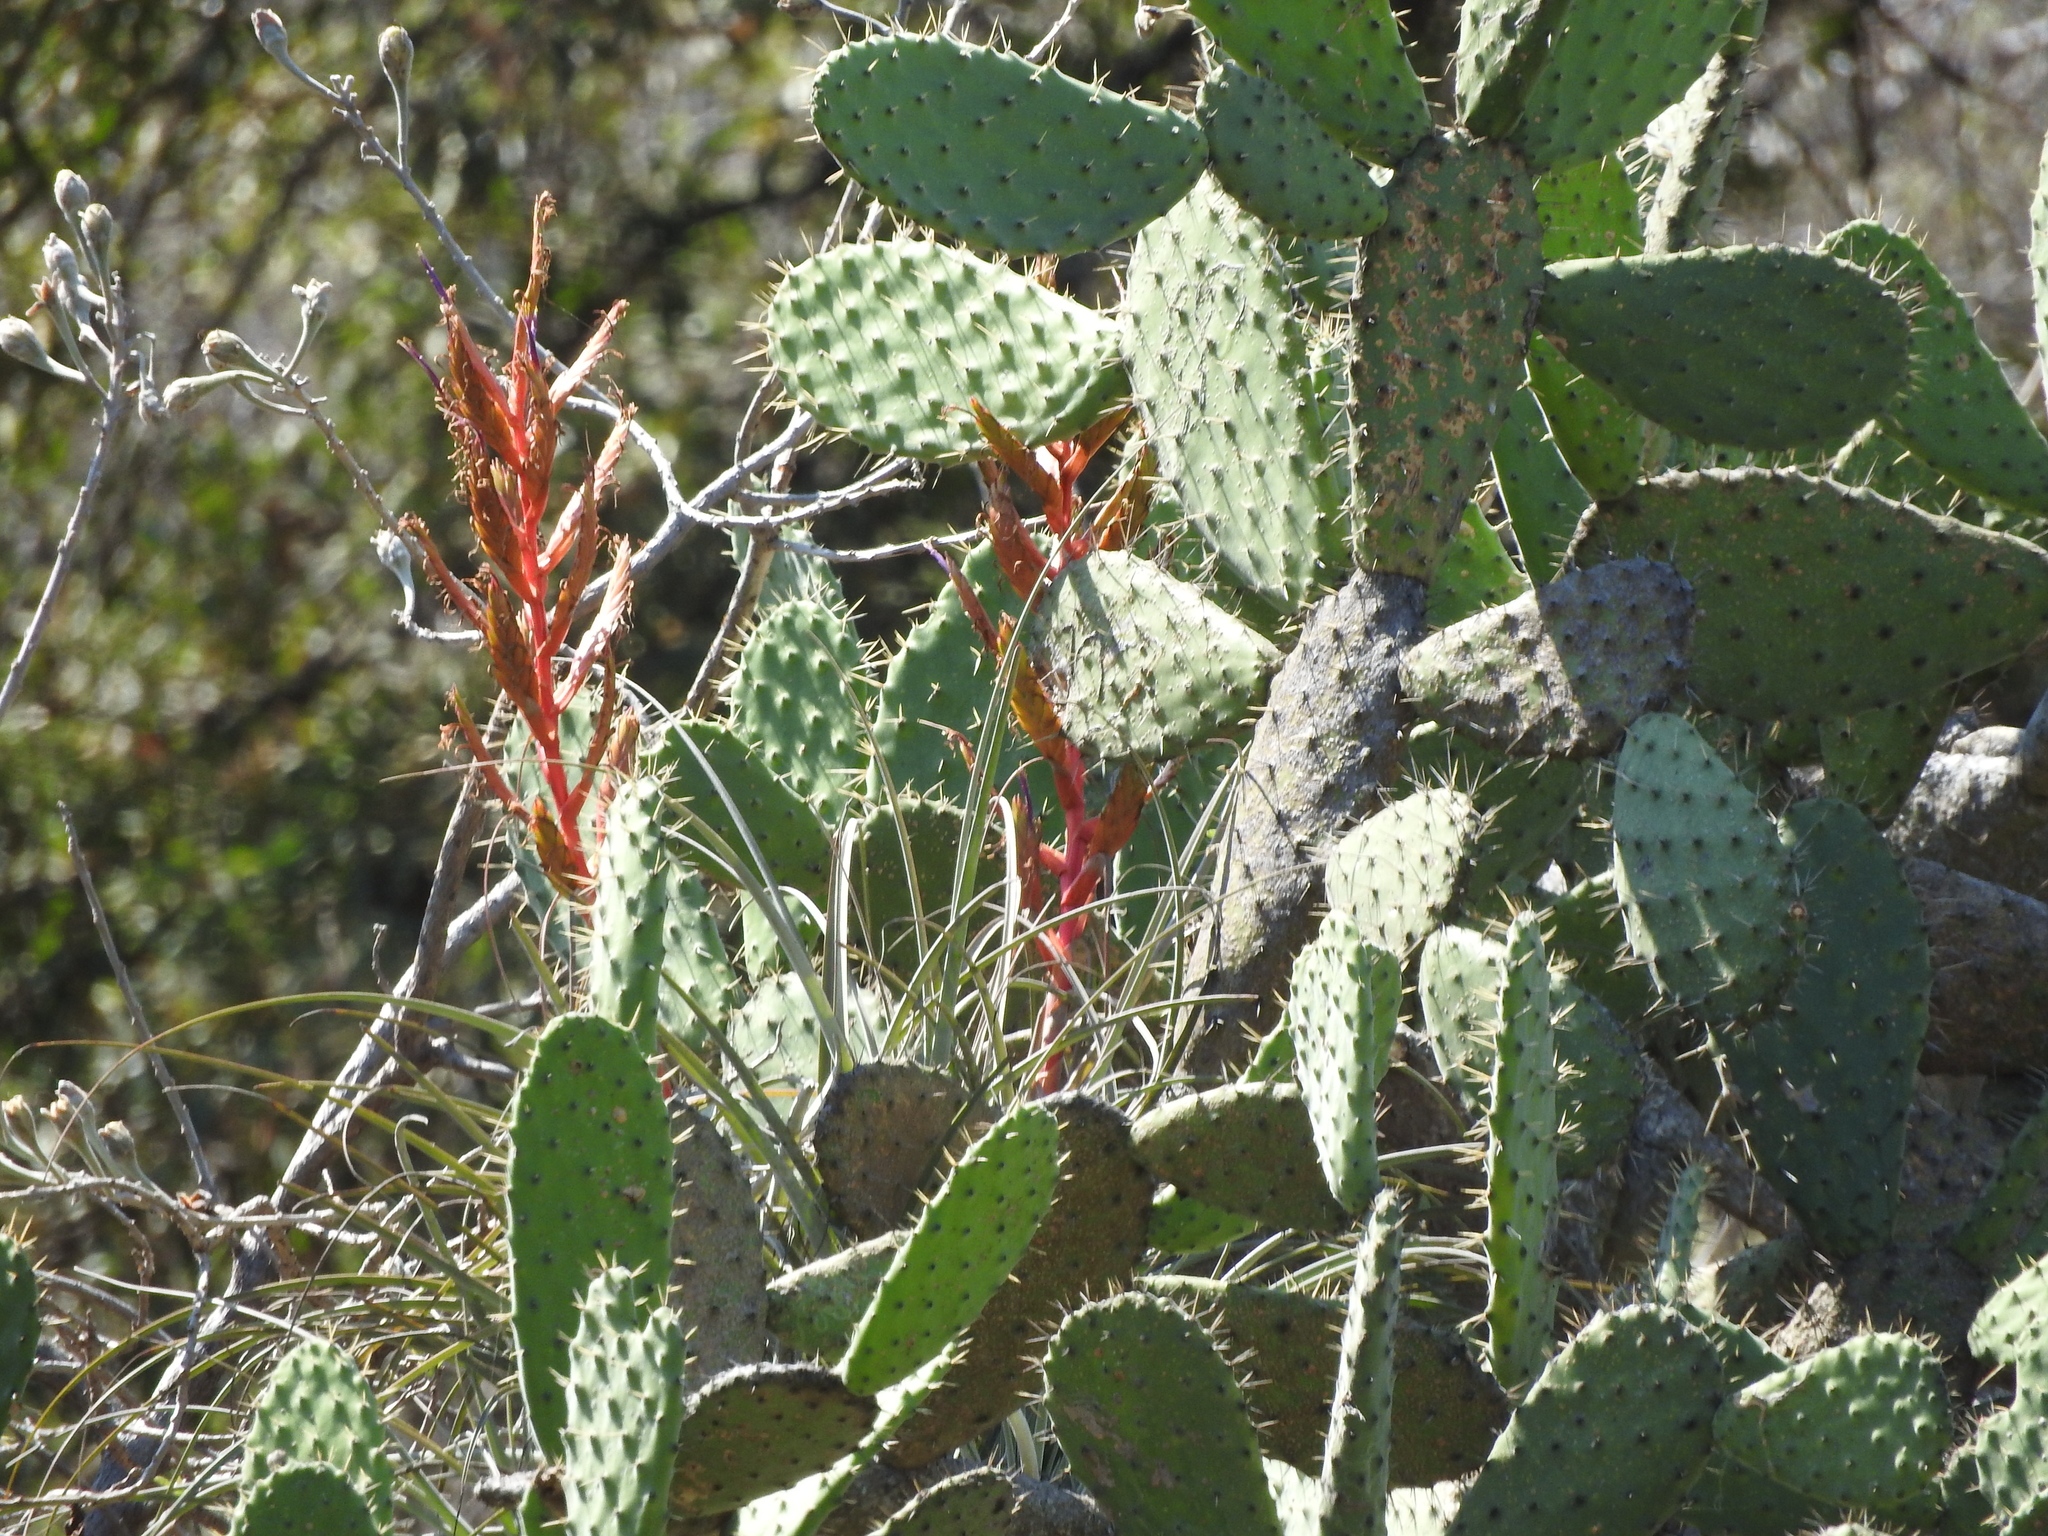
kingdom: Plantae
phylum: Tracheophyta
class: Magnoliopsida
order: Caryophyllales
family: Cactaceae
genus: Opuntia
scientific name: Opuntia jaliscana
